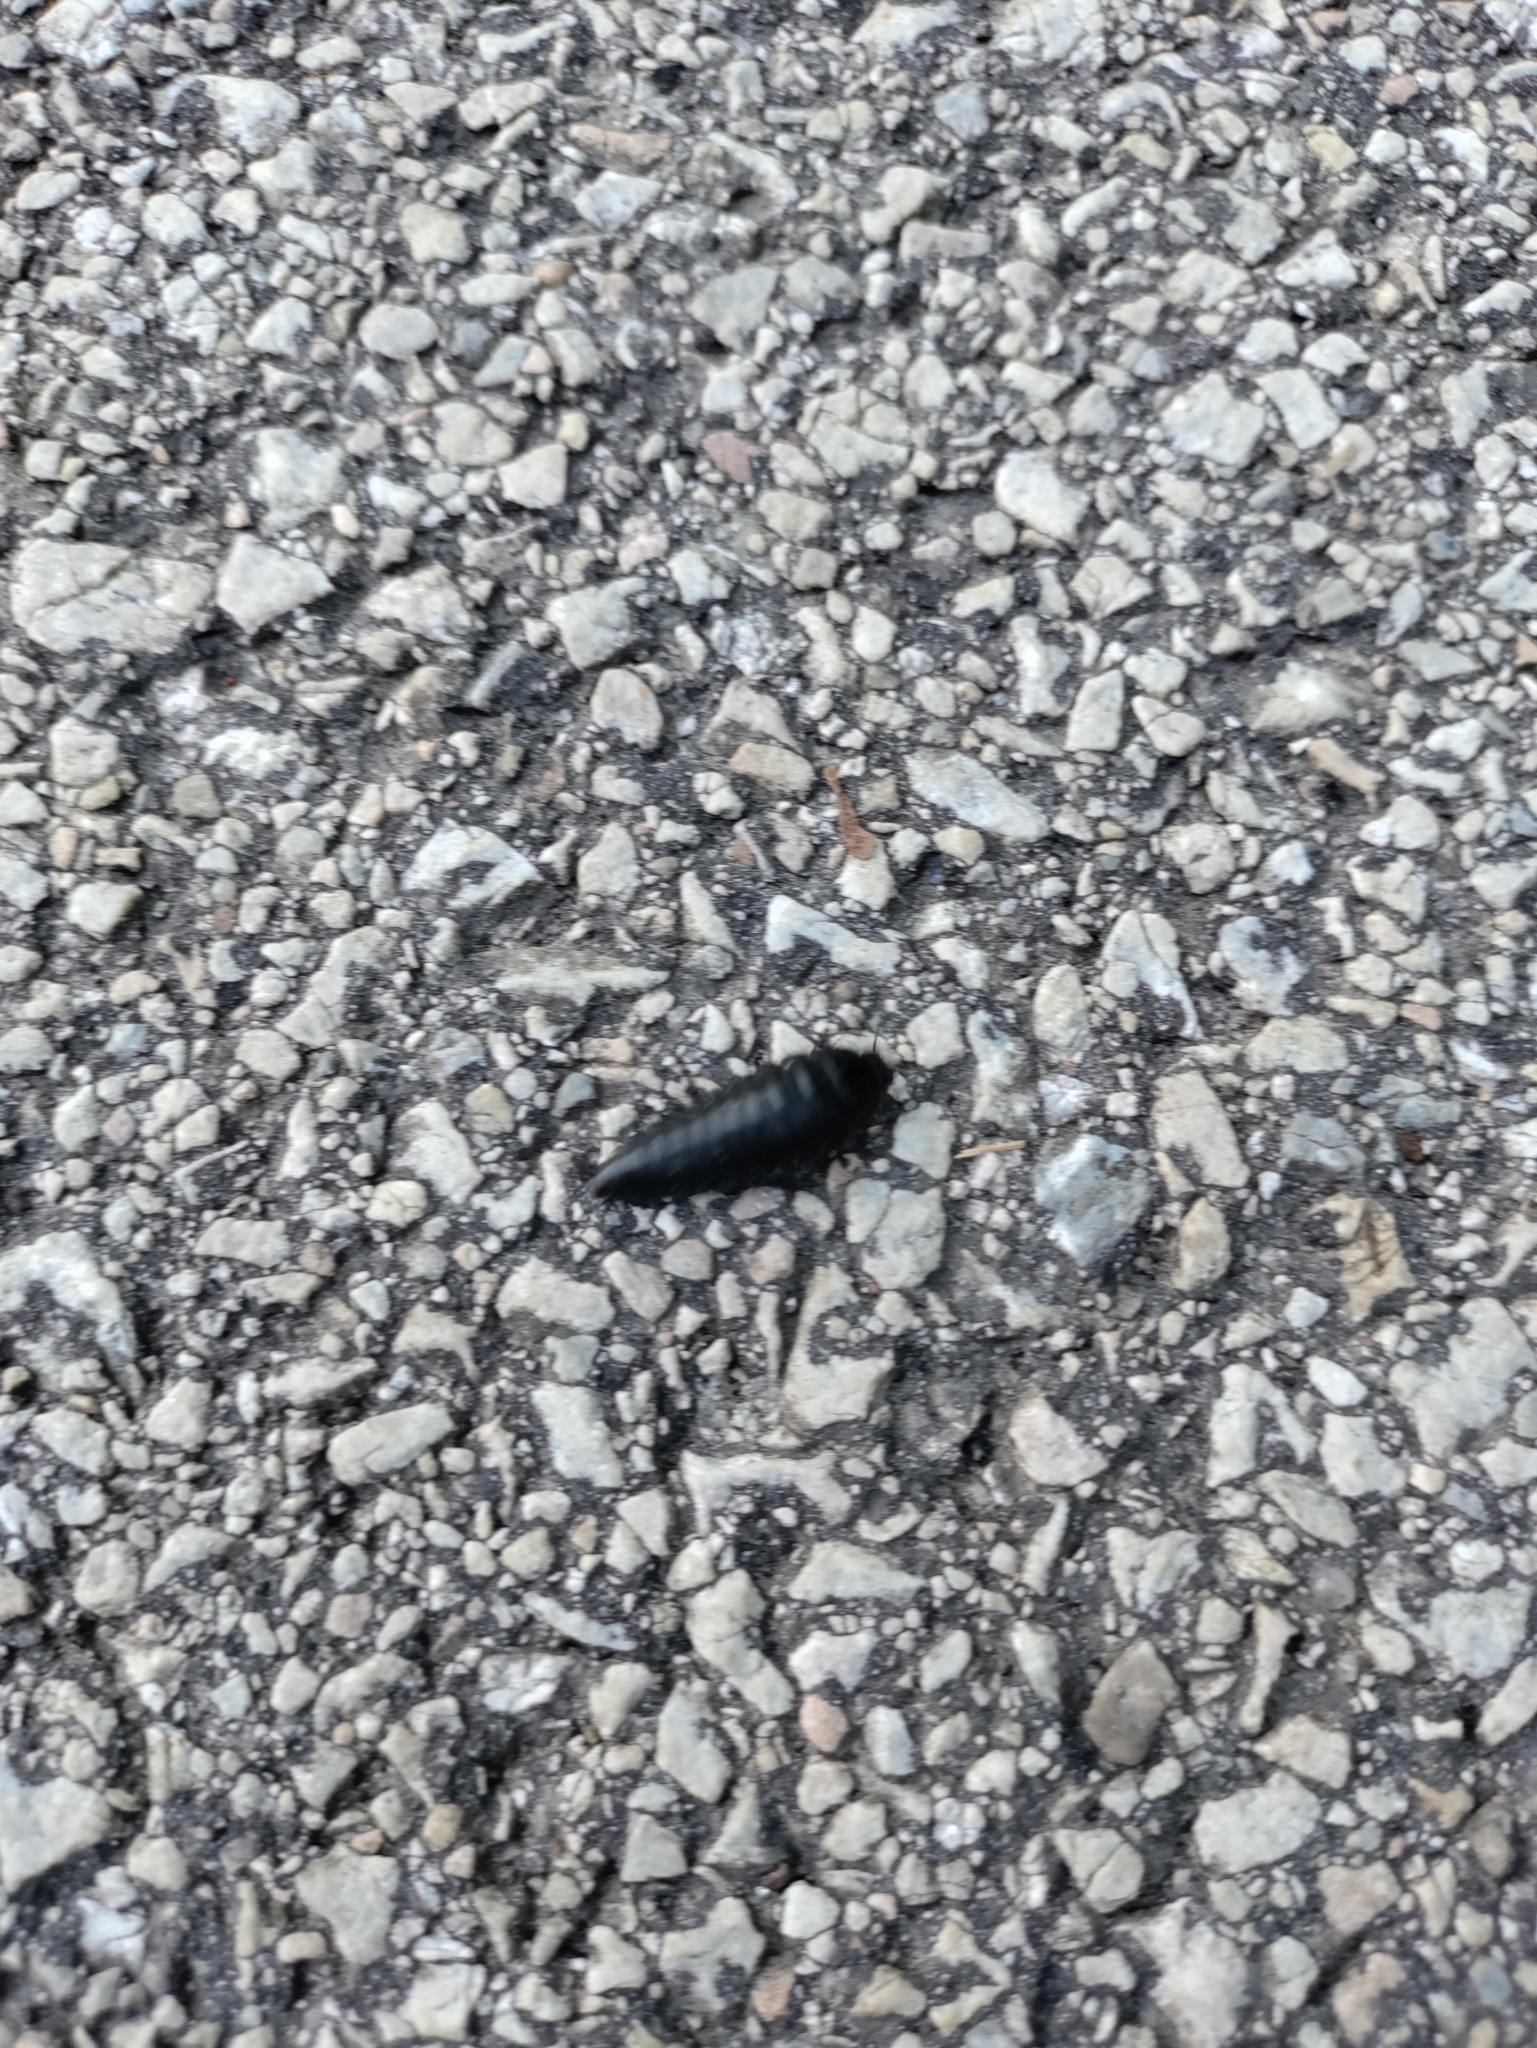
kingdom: Animalia
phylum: Arthropoda
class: Insecta
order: Coleoptera
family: Staphylinidae
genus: Necrophila
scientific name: Necrophila americana
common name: American carrion beetle
